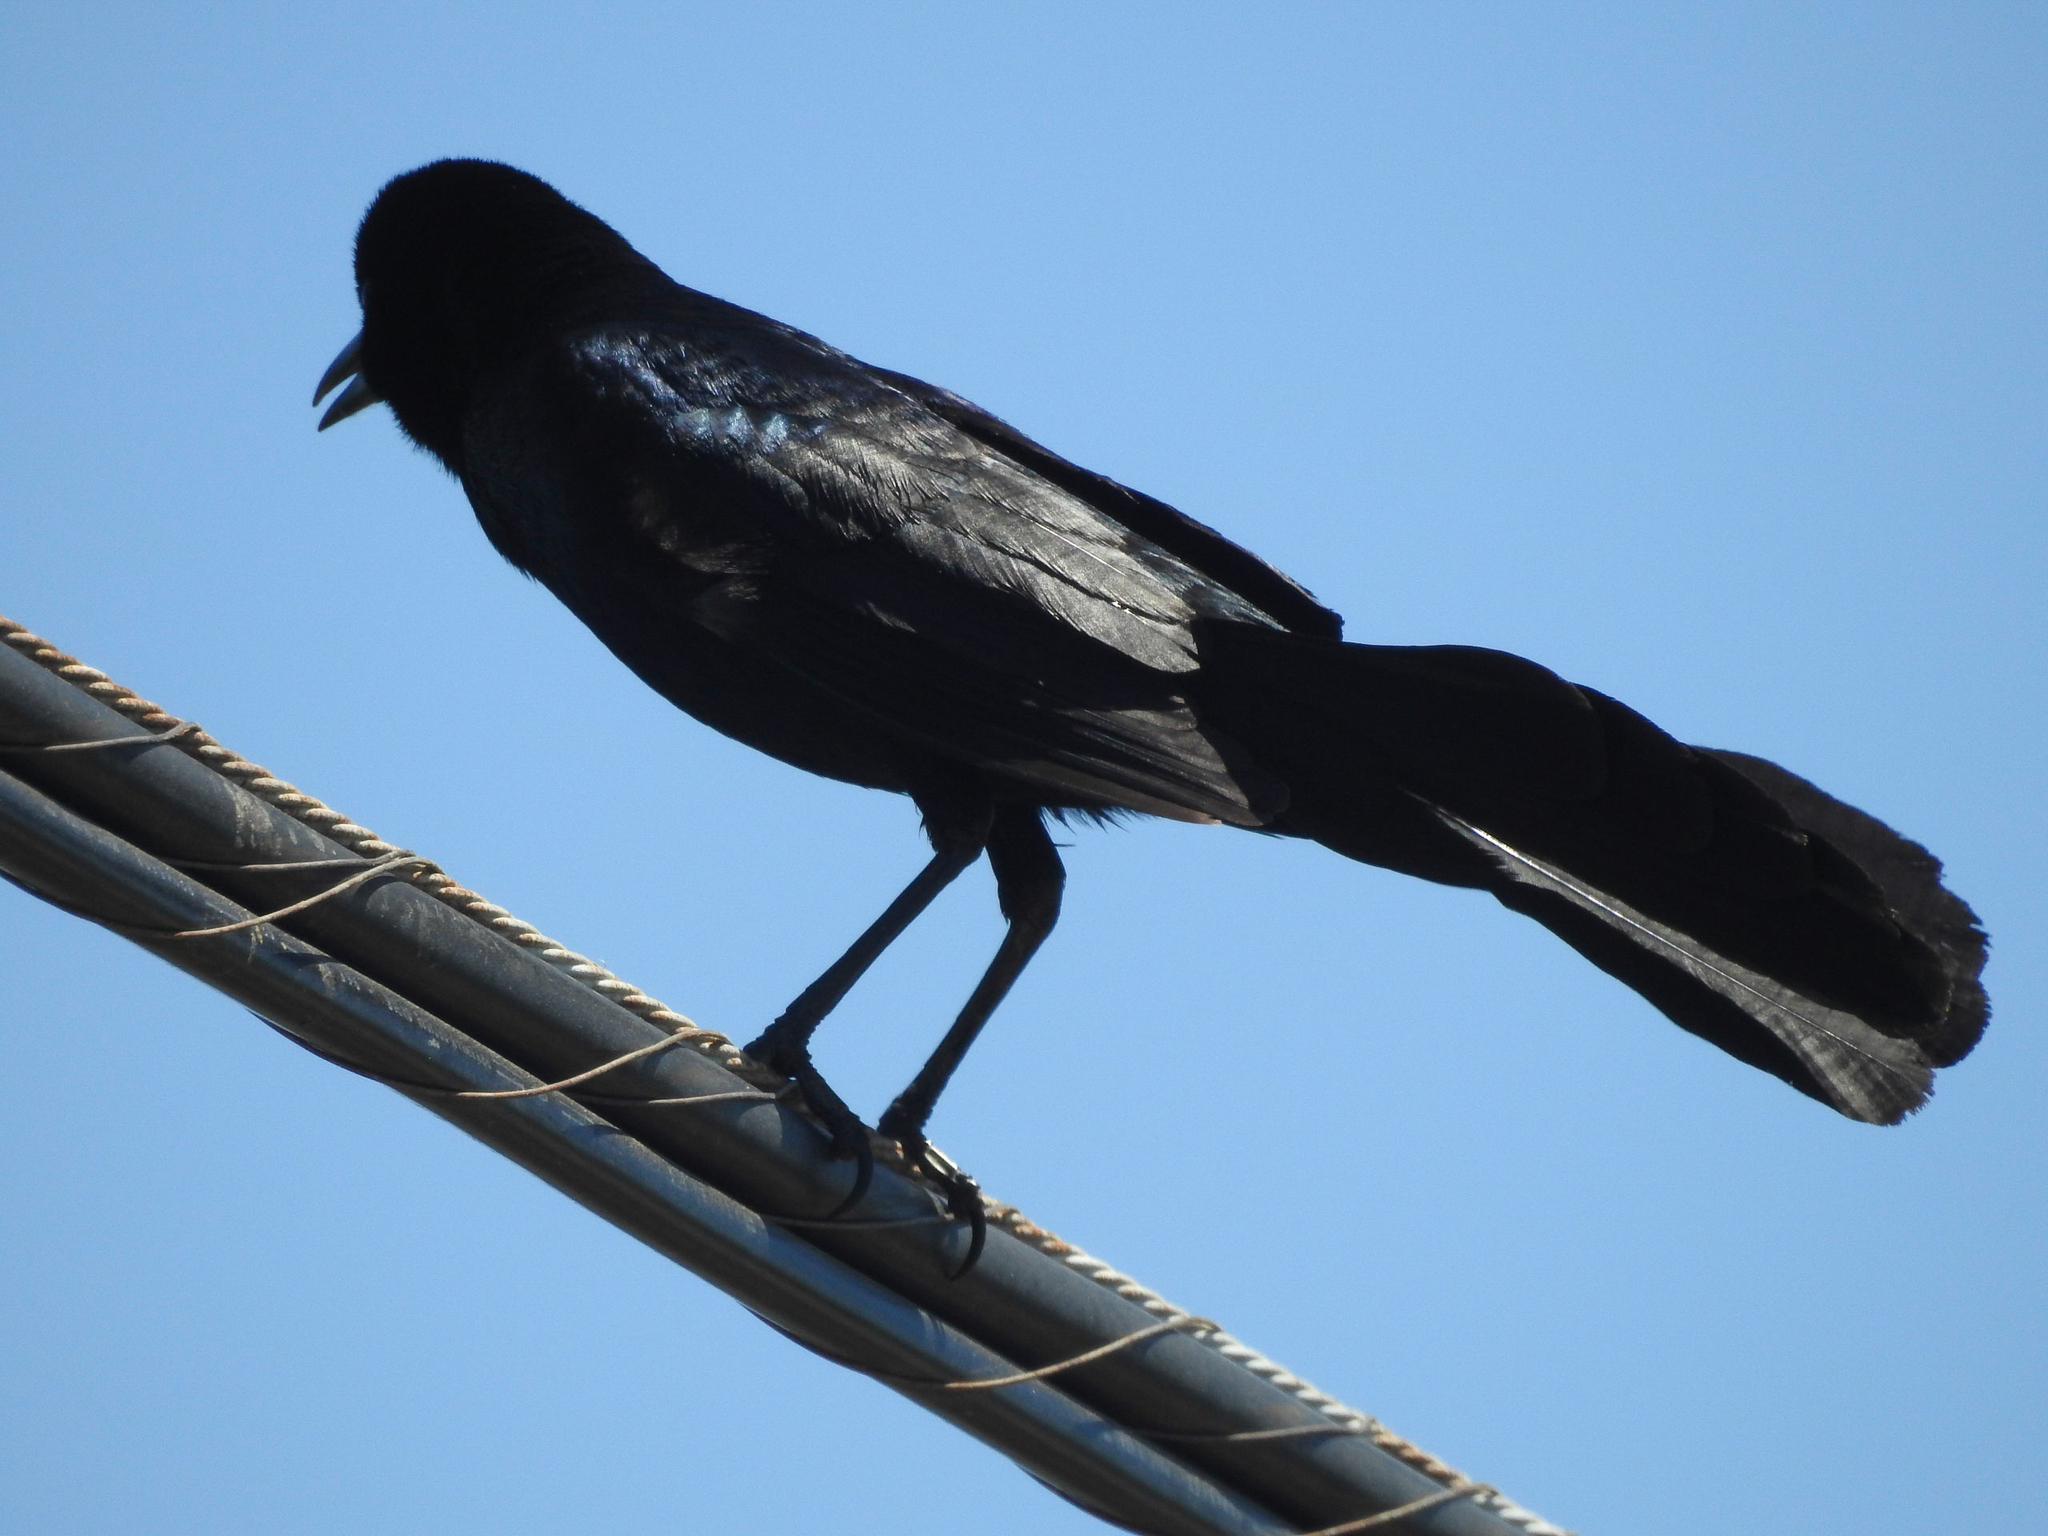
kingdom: Animalia
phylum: Chordata
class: Aves
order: Passeriformes
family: Icteridae
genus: Quiscalus
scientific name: Quiscalus major
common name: Boat-tailed grackle
